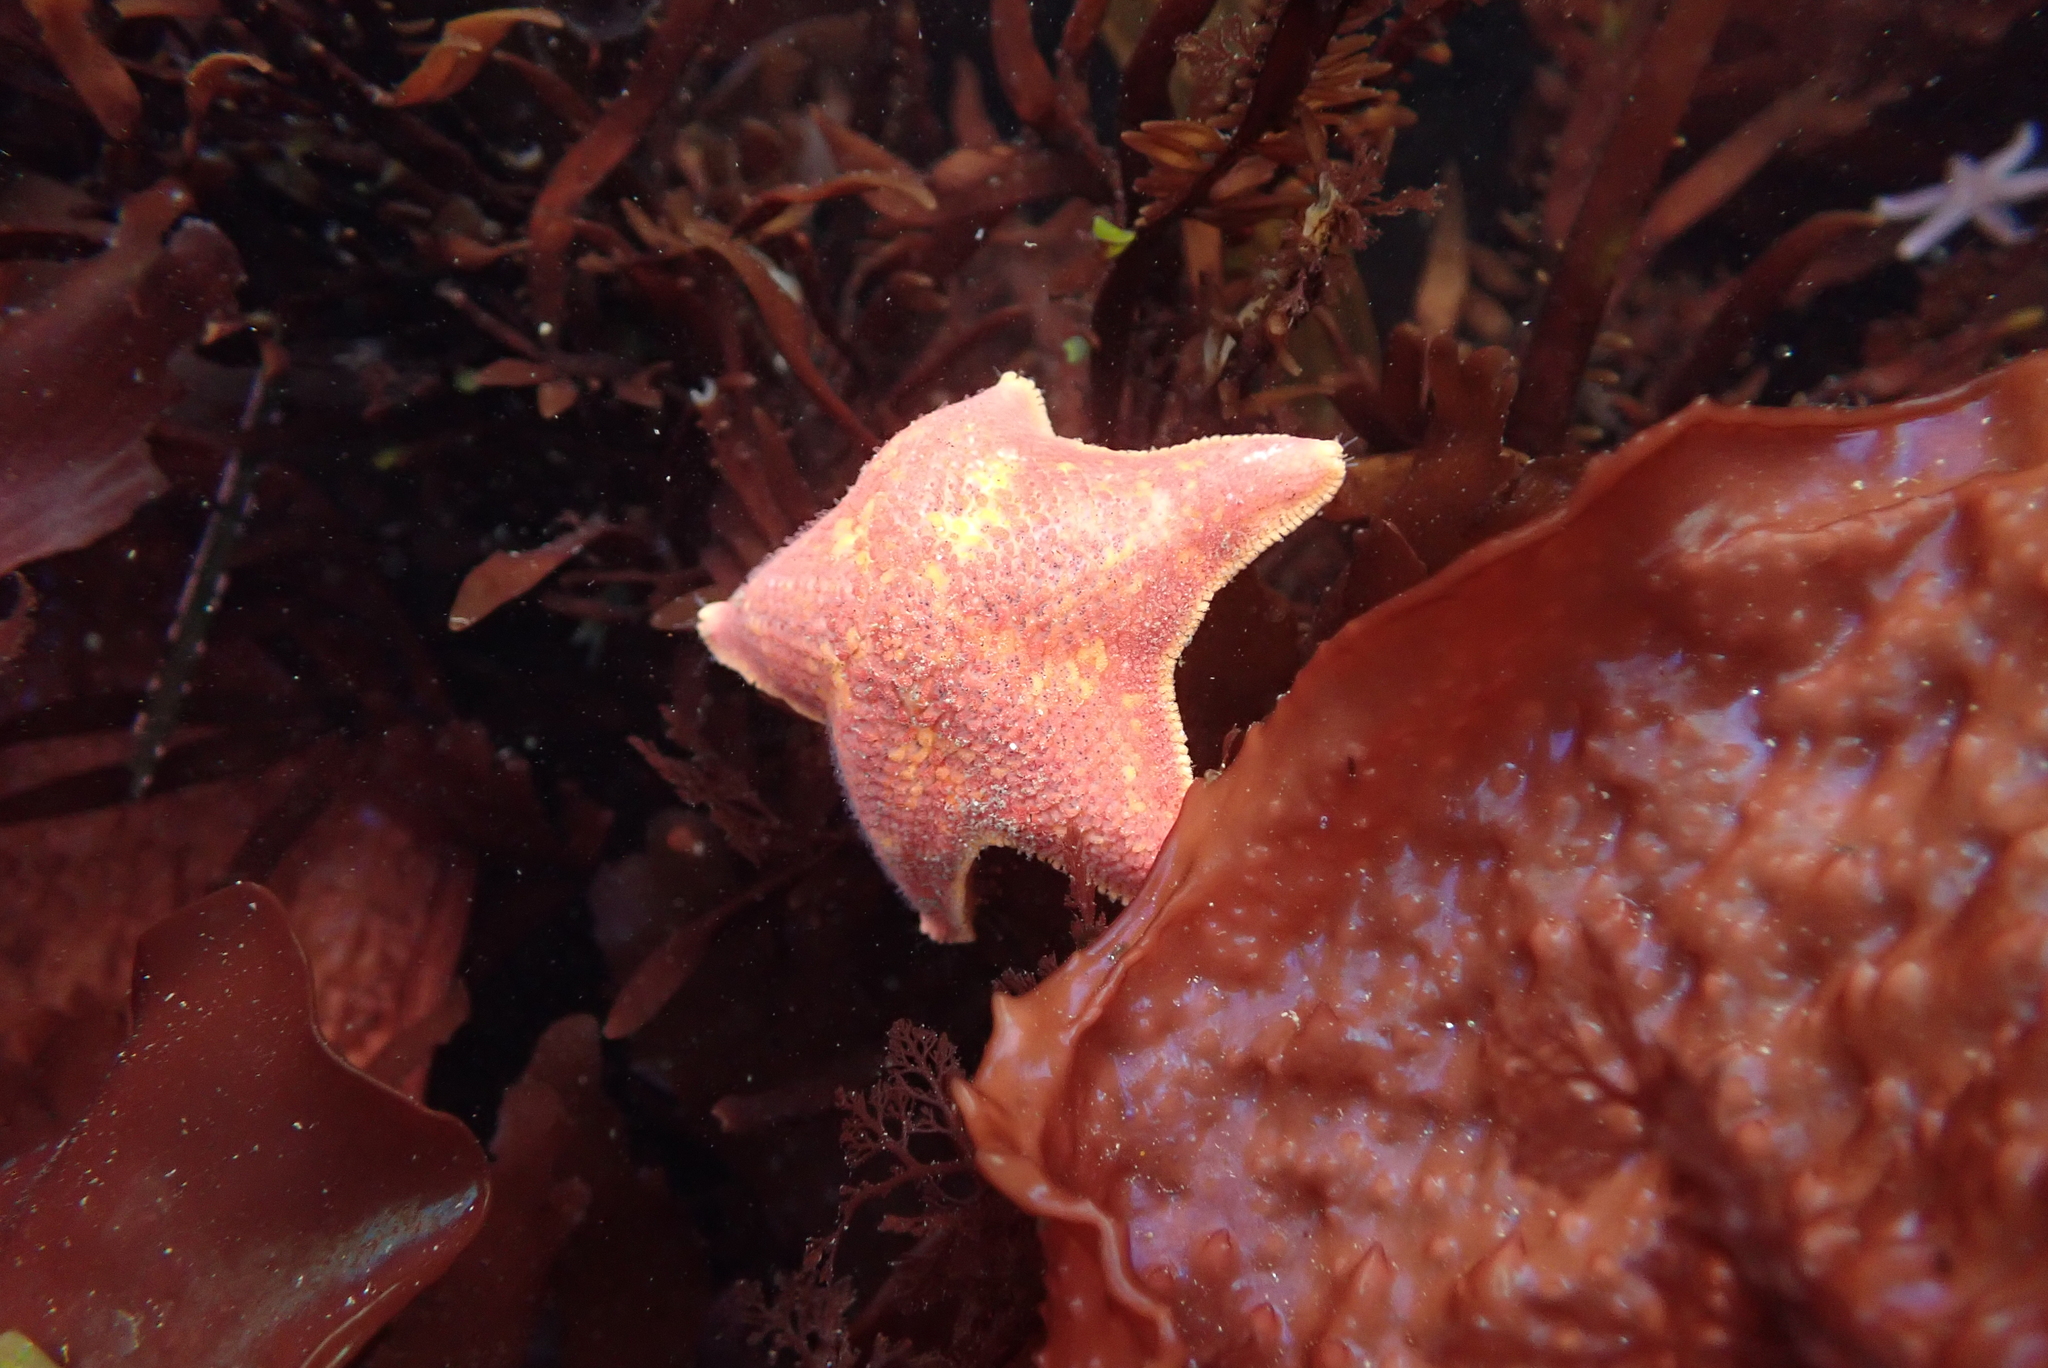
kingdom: Animalia
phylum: Echinodermata
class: Asteroidea
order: Valvatida
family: Asterinidae
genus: Patiria
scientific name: Patiria miniata
